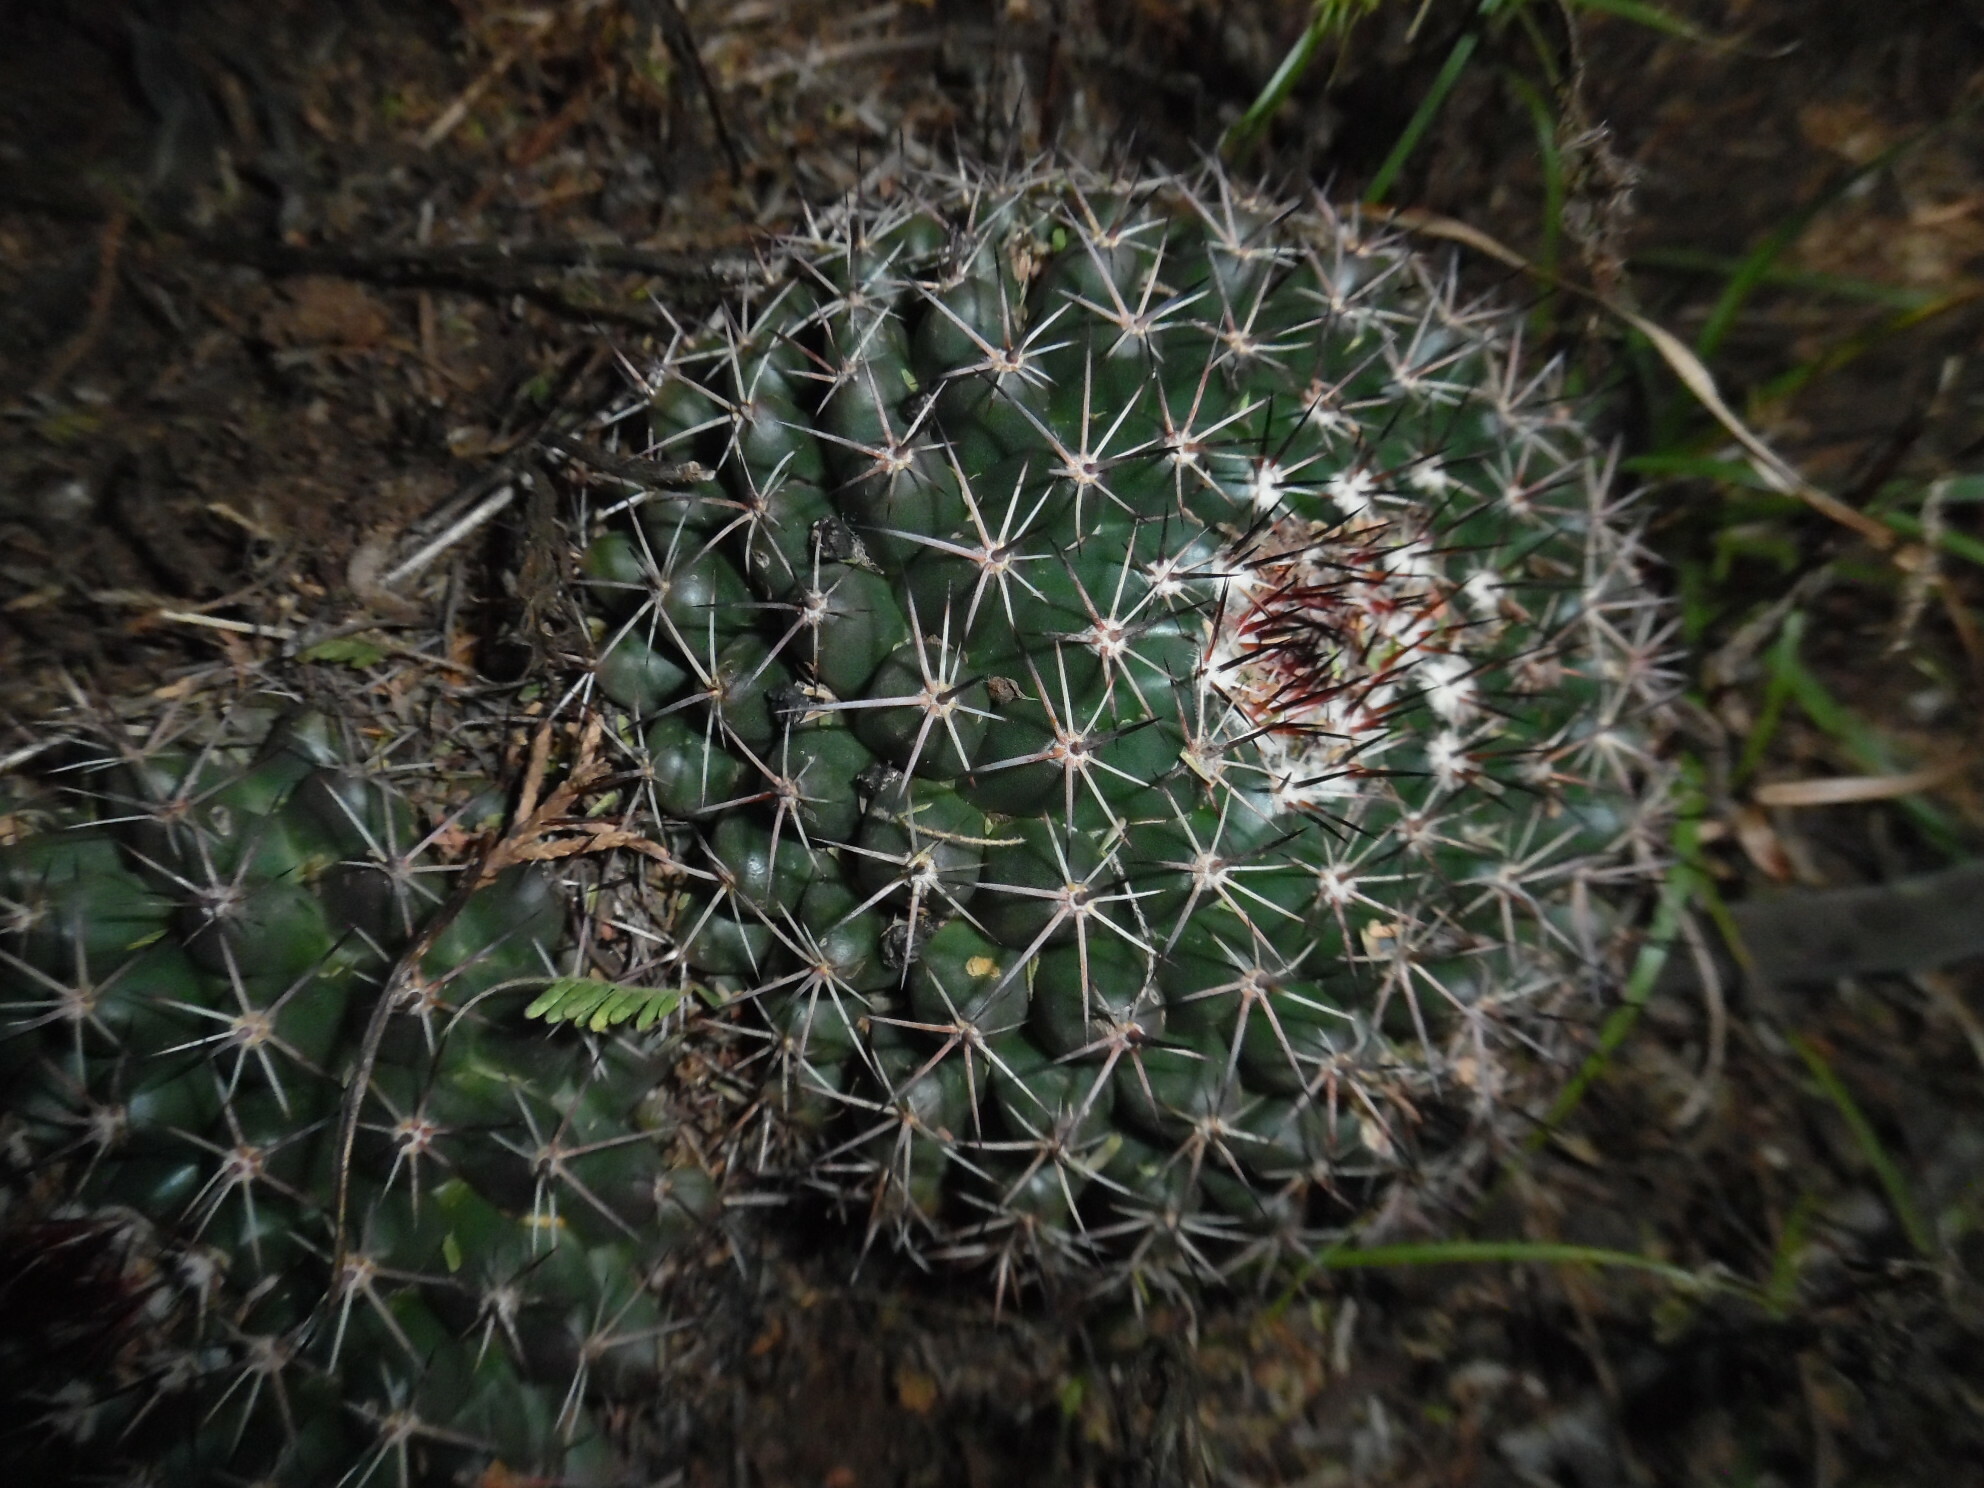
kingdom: Plantae
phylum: Tracheophyta
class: Magnoliopsida
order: Caryophyllales
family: Cactaceae
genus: Mammillaria
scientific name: Mammillaria wagneriana
